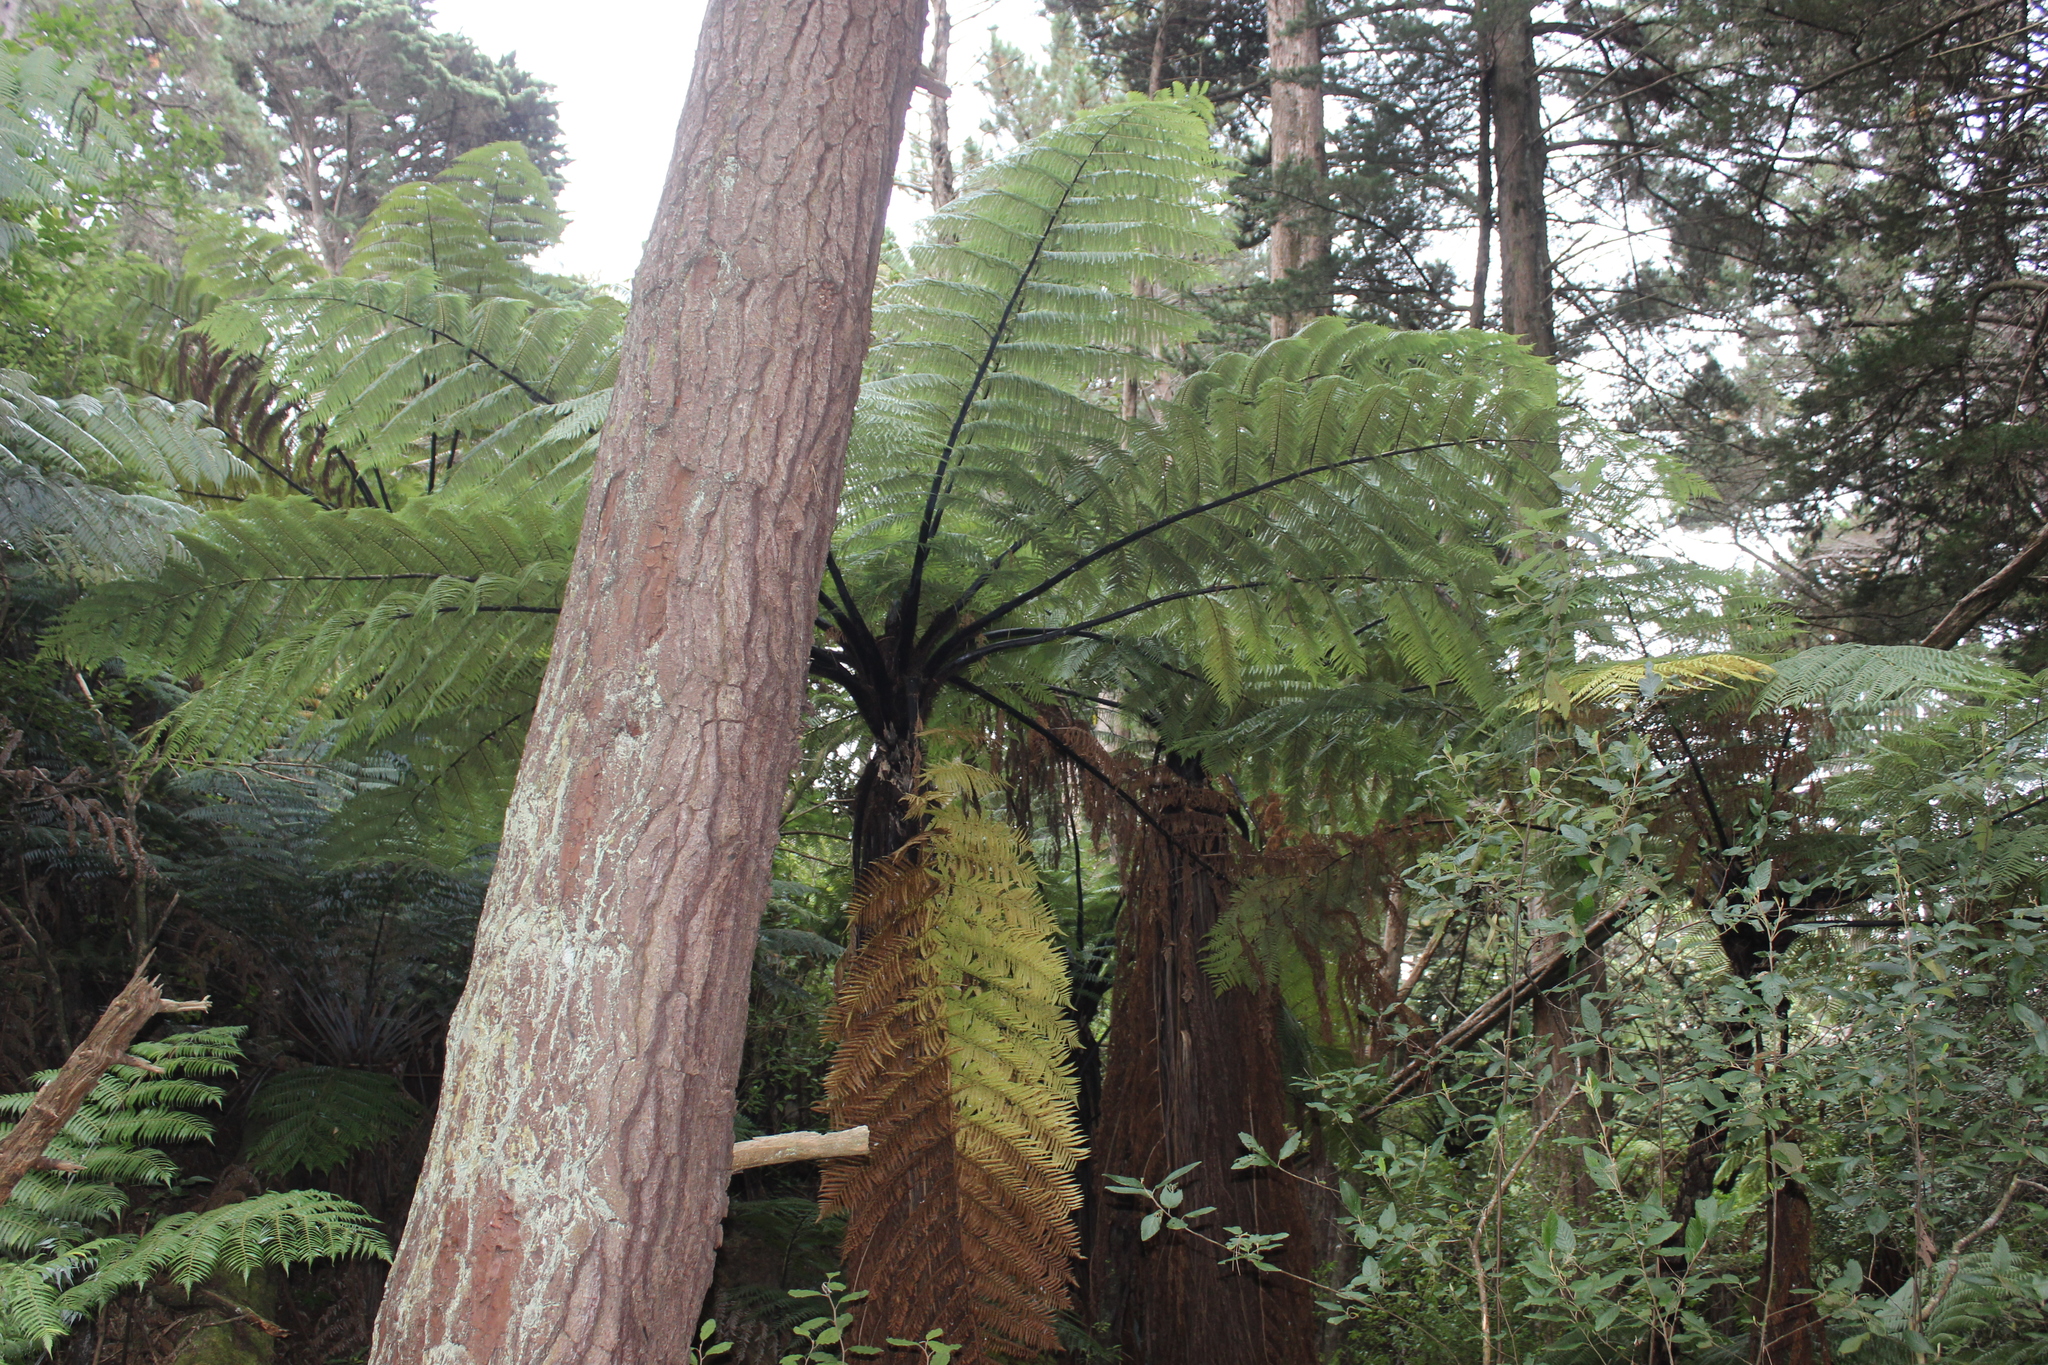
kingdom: Plantae
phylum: Tracheophyta
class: Polypodiopsida
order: Cyatheales
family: Cyatheaceae
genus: Sphaeropteris
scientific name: Sphaeropteris medullaris
